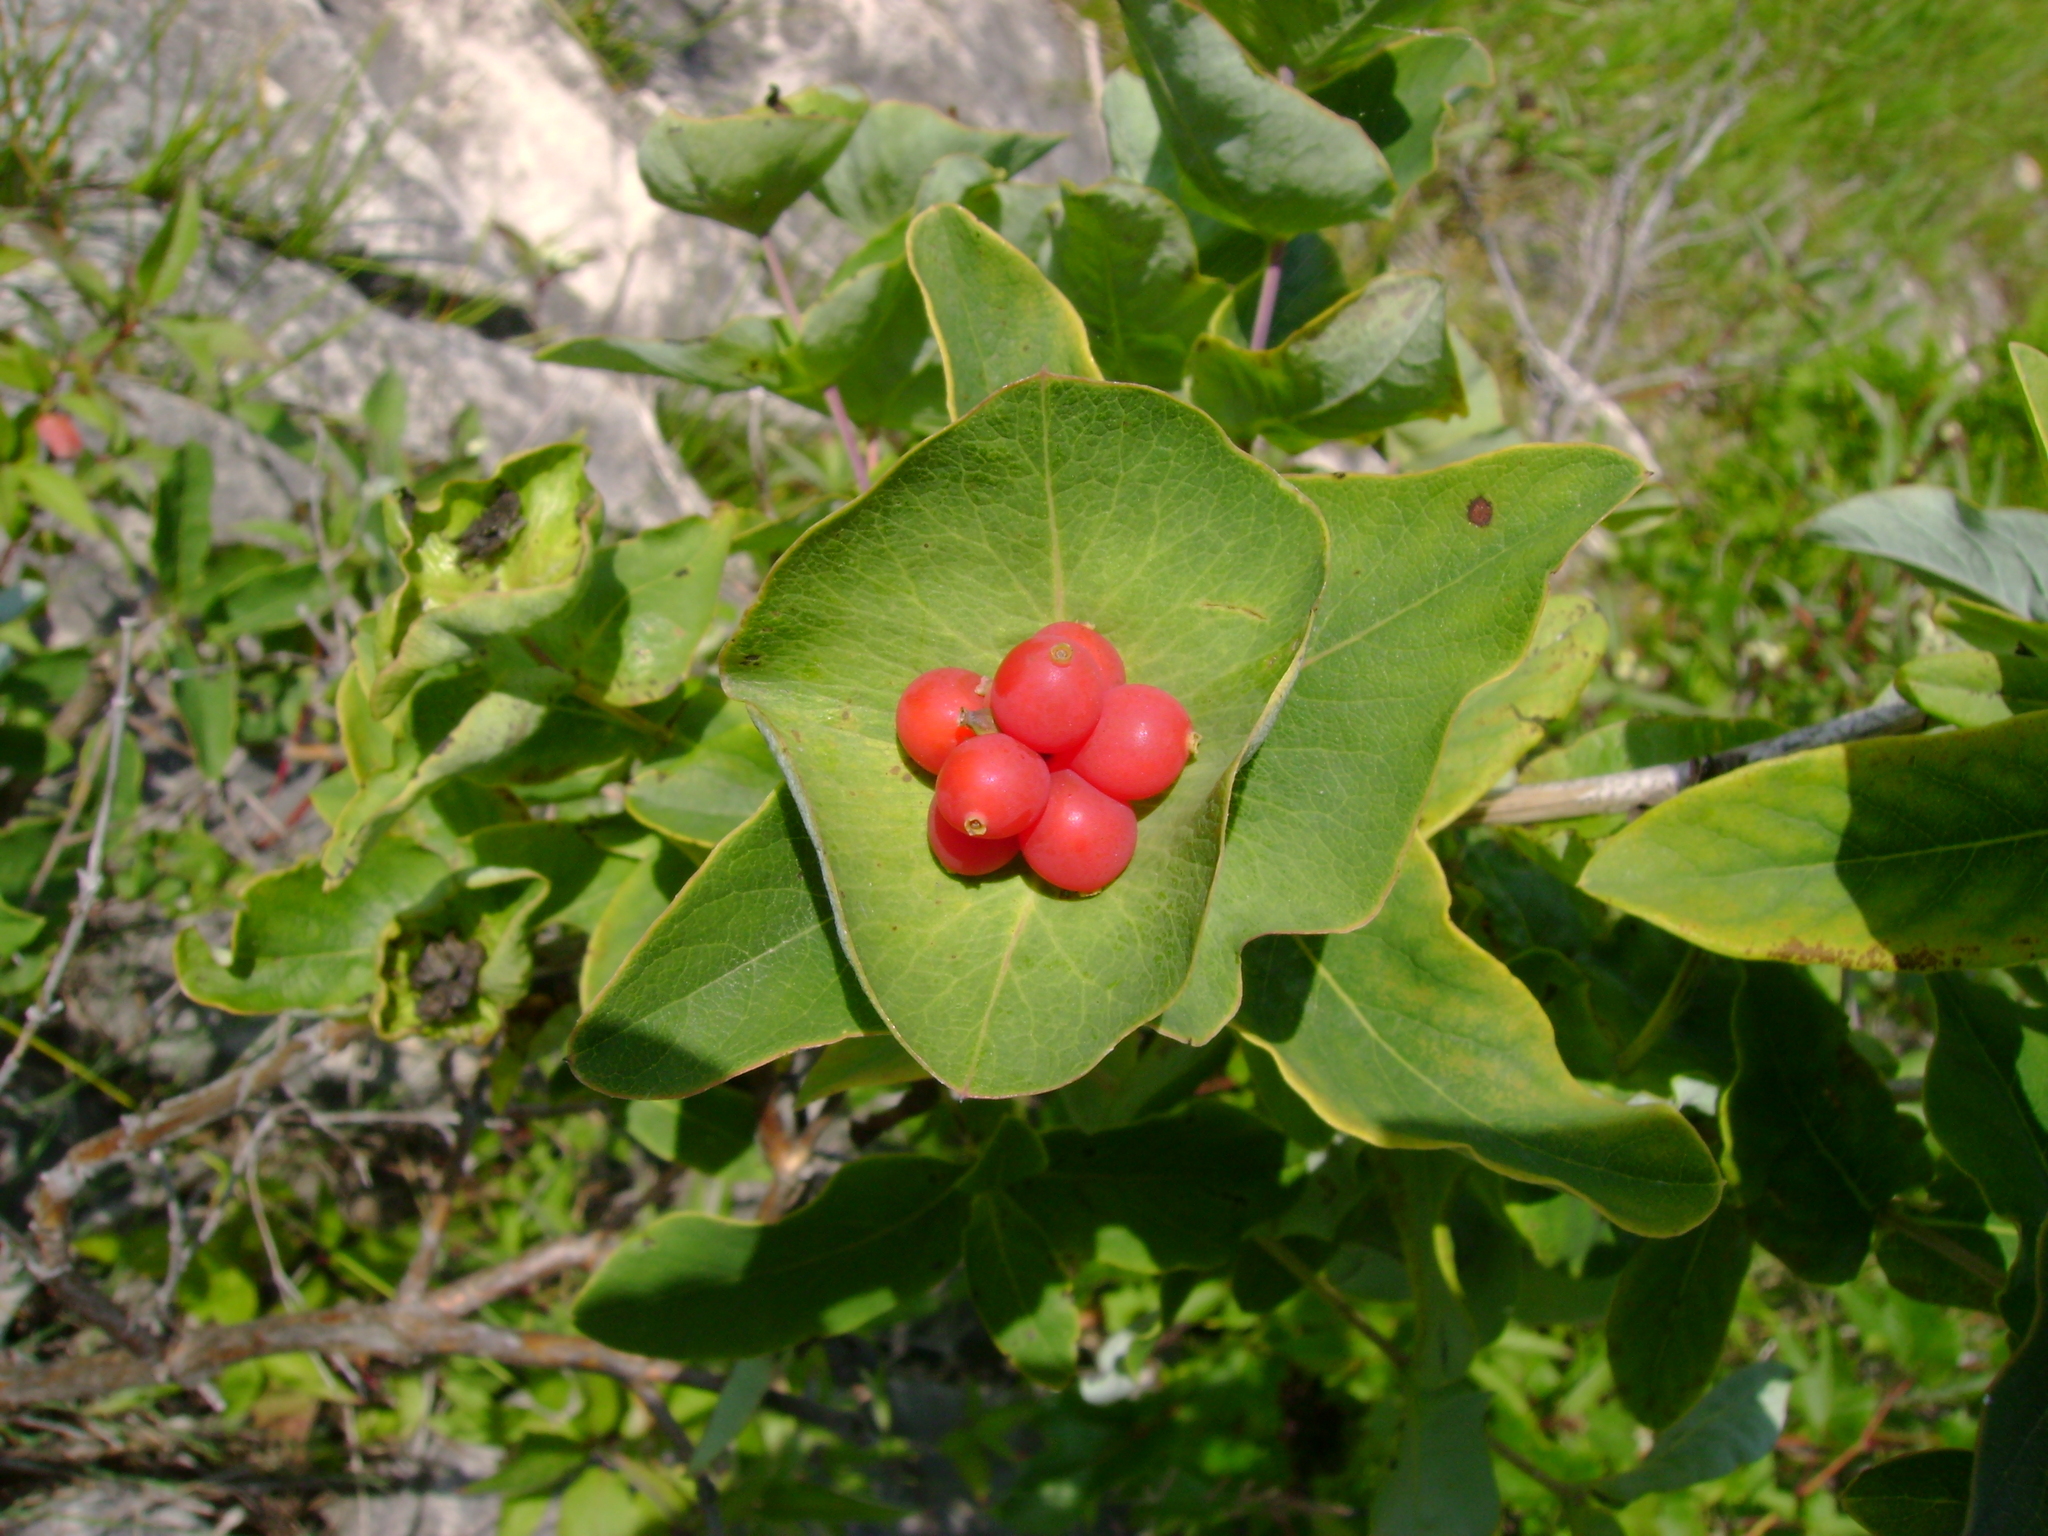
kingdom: Plantae
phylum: Tracheophyta
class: Magnoliopsida
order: Dipsacales
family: Caprifoliaceae
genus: Lonicera
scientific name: Lonicera dioica
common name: Limber honeysuckle
